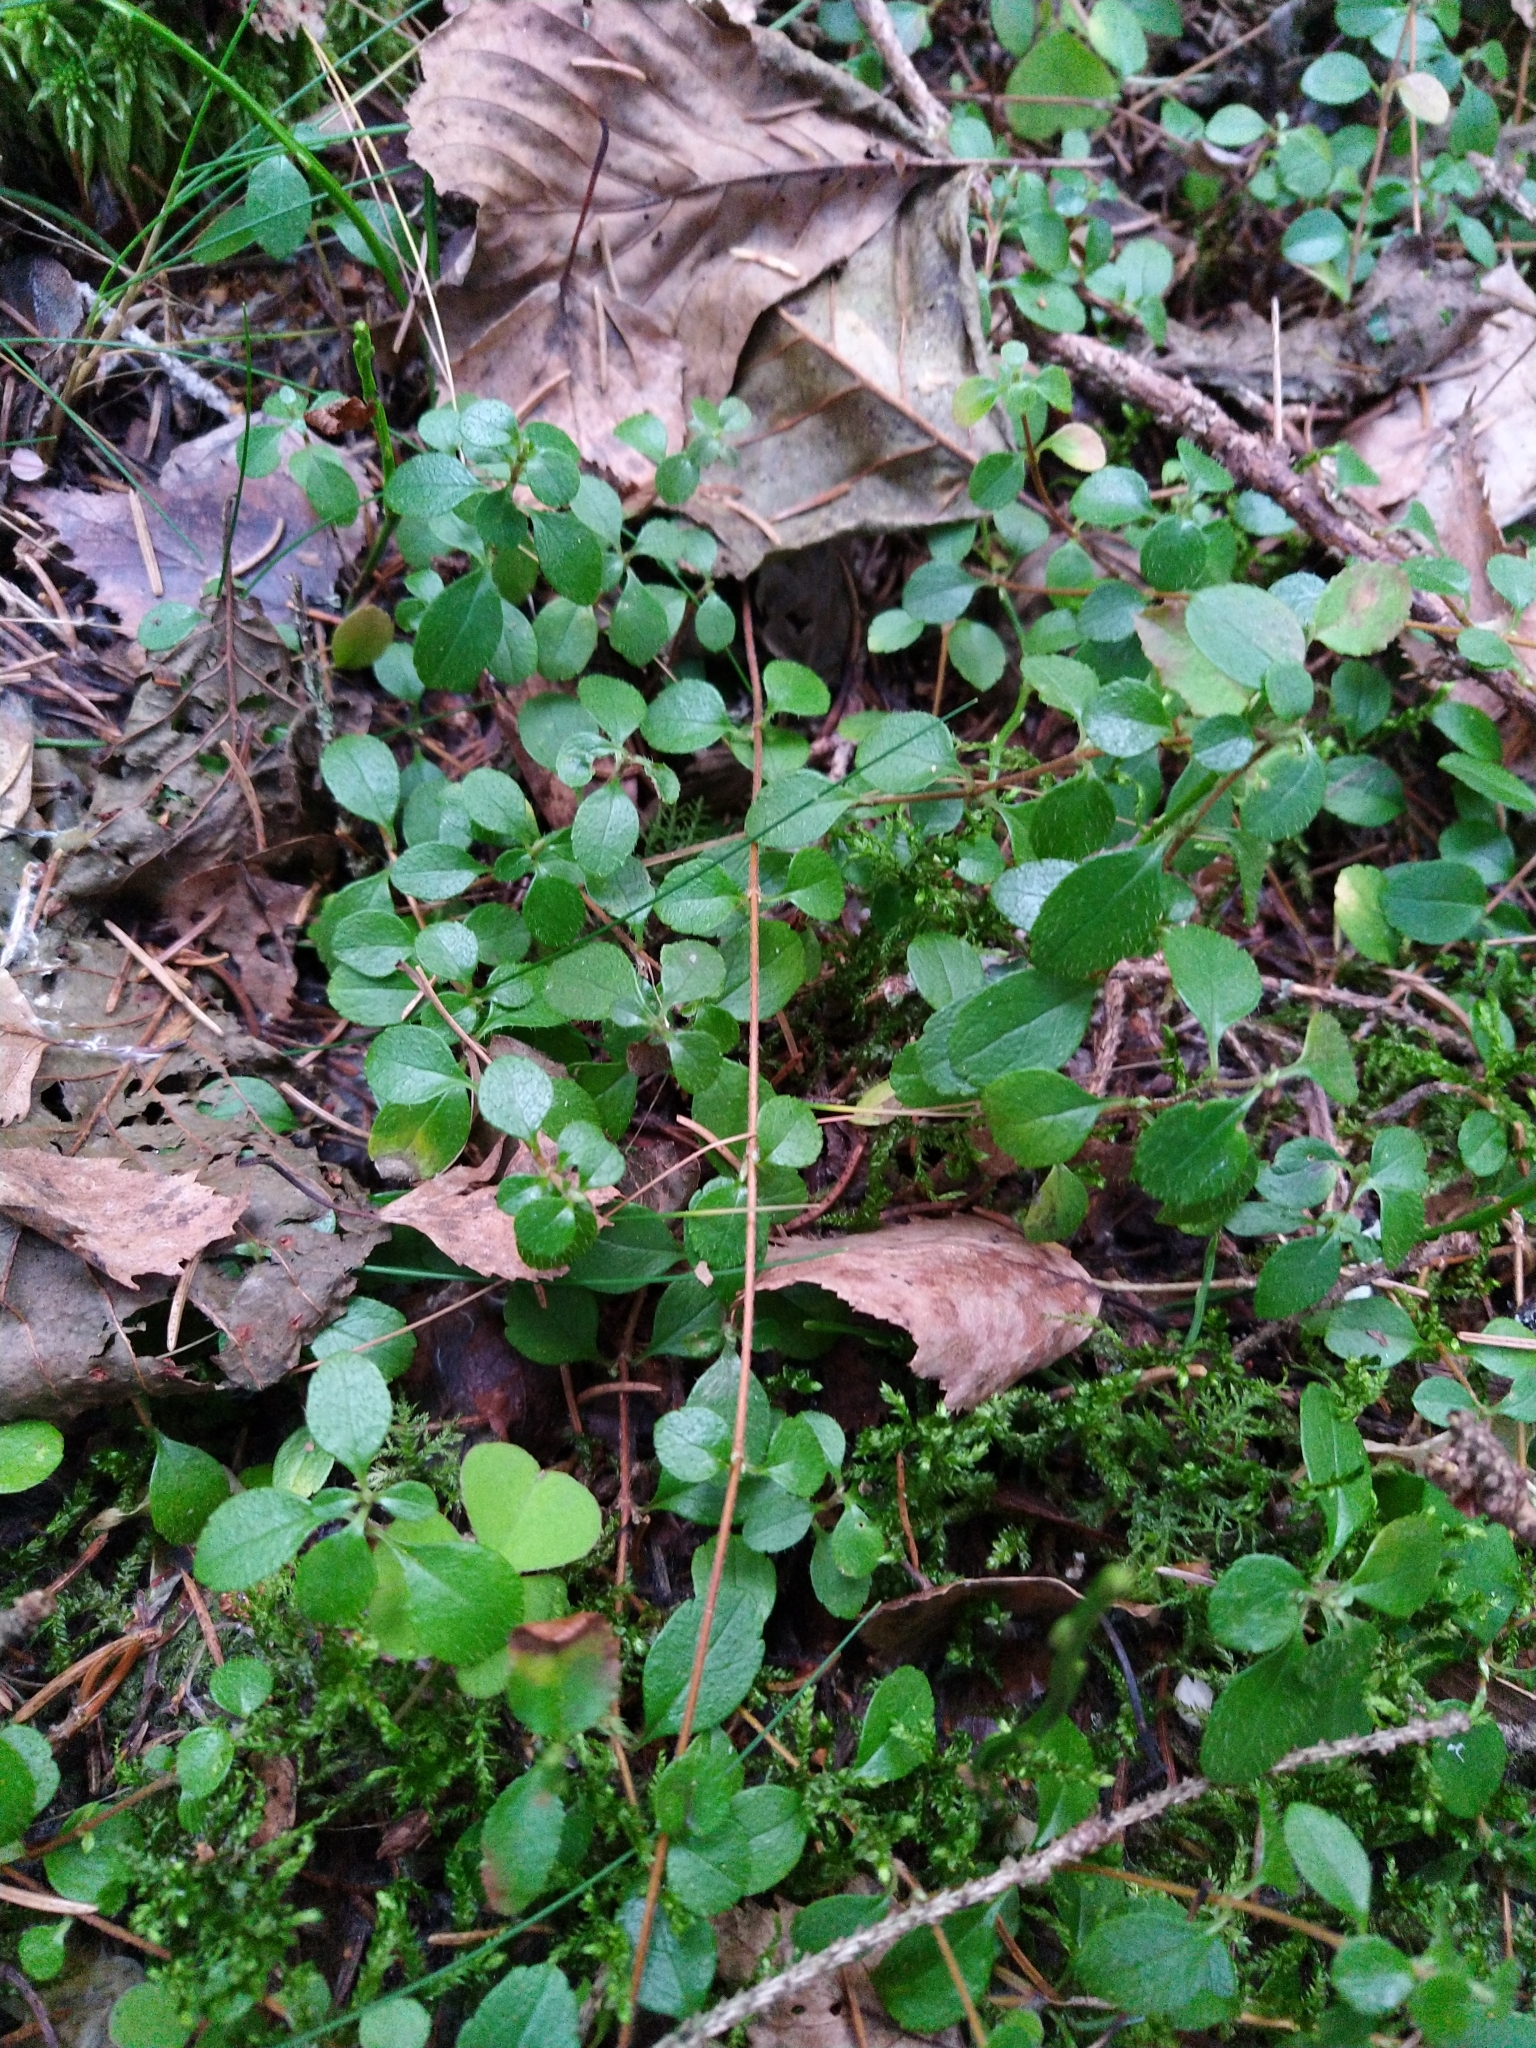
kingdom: Plantae
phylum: Tracheophyta
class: Magnoliopsida
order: Dipsacales
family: Caprifoliaceae
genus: Linnaea
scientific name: Linnaea borealis
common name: Twinflower
